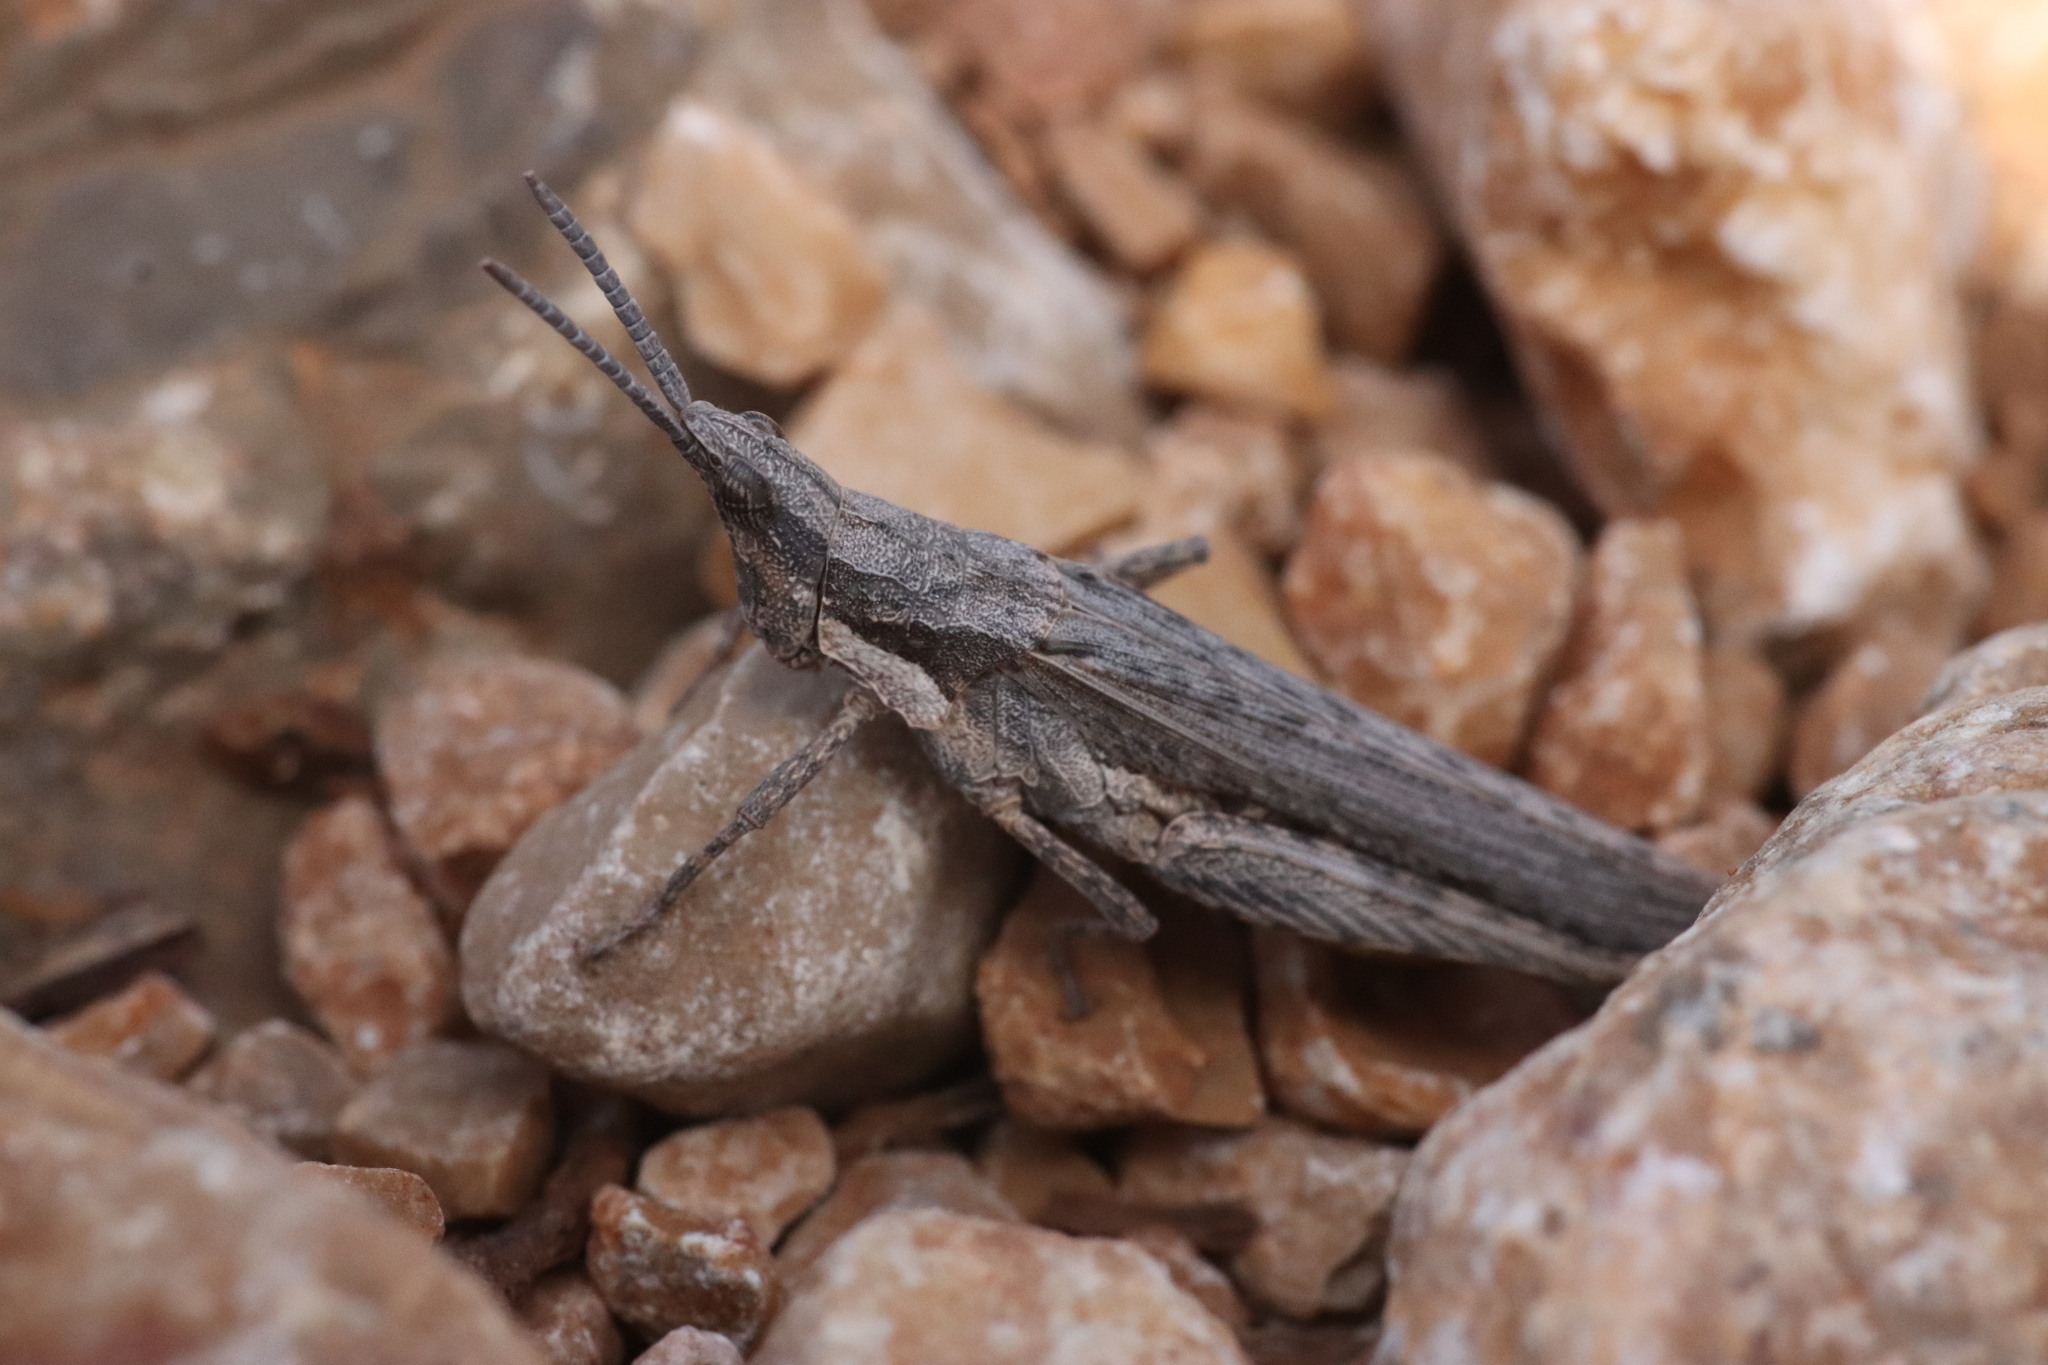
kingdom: Animalia
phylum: Arthropoda
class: Insecta
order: Orthoptera
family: Pyrgomorphidae
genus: Pyrgomorpha
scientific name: Pyrgomorpha conica
